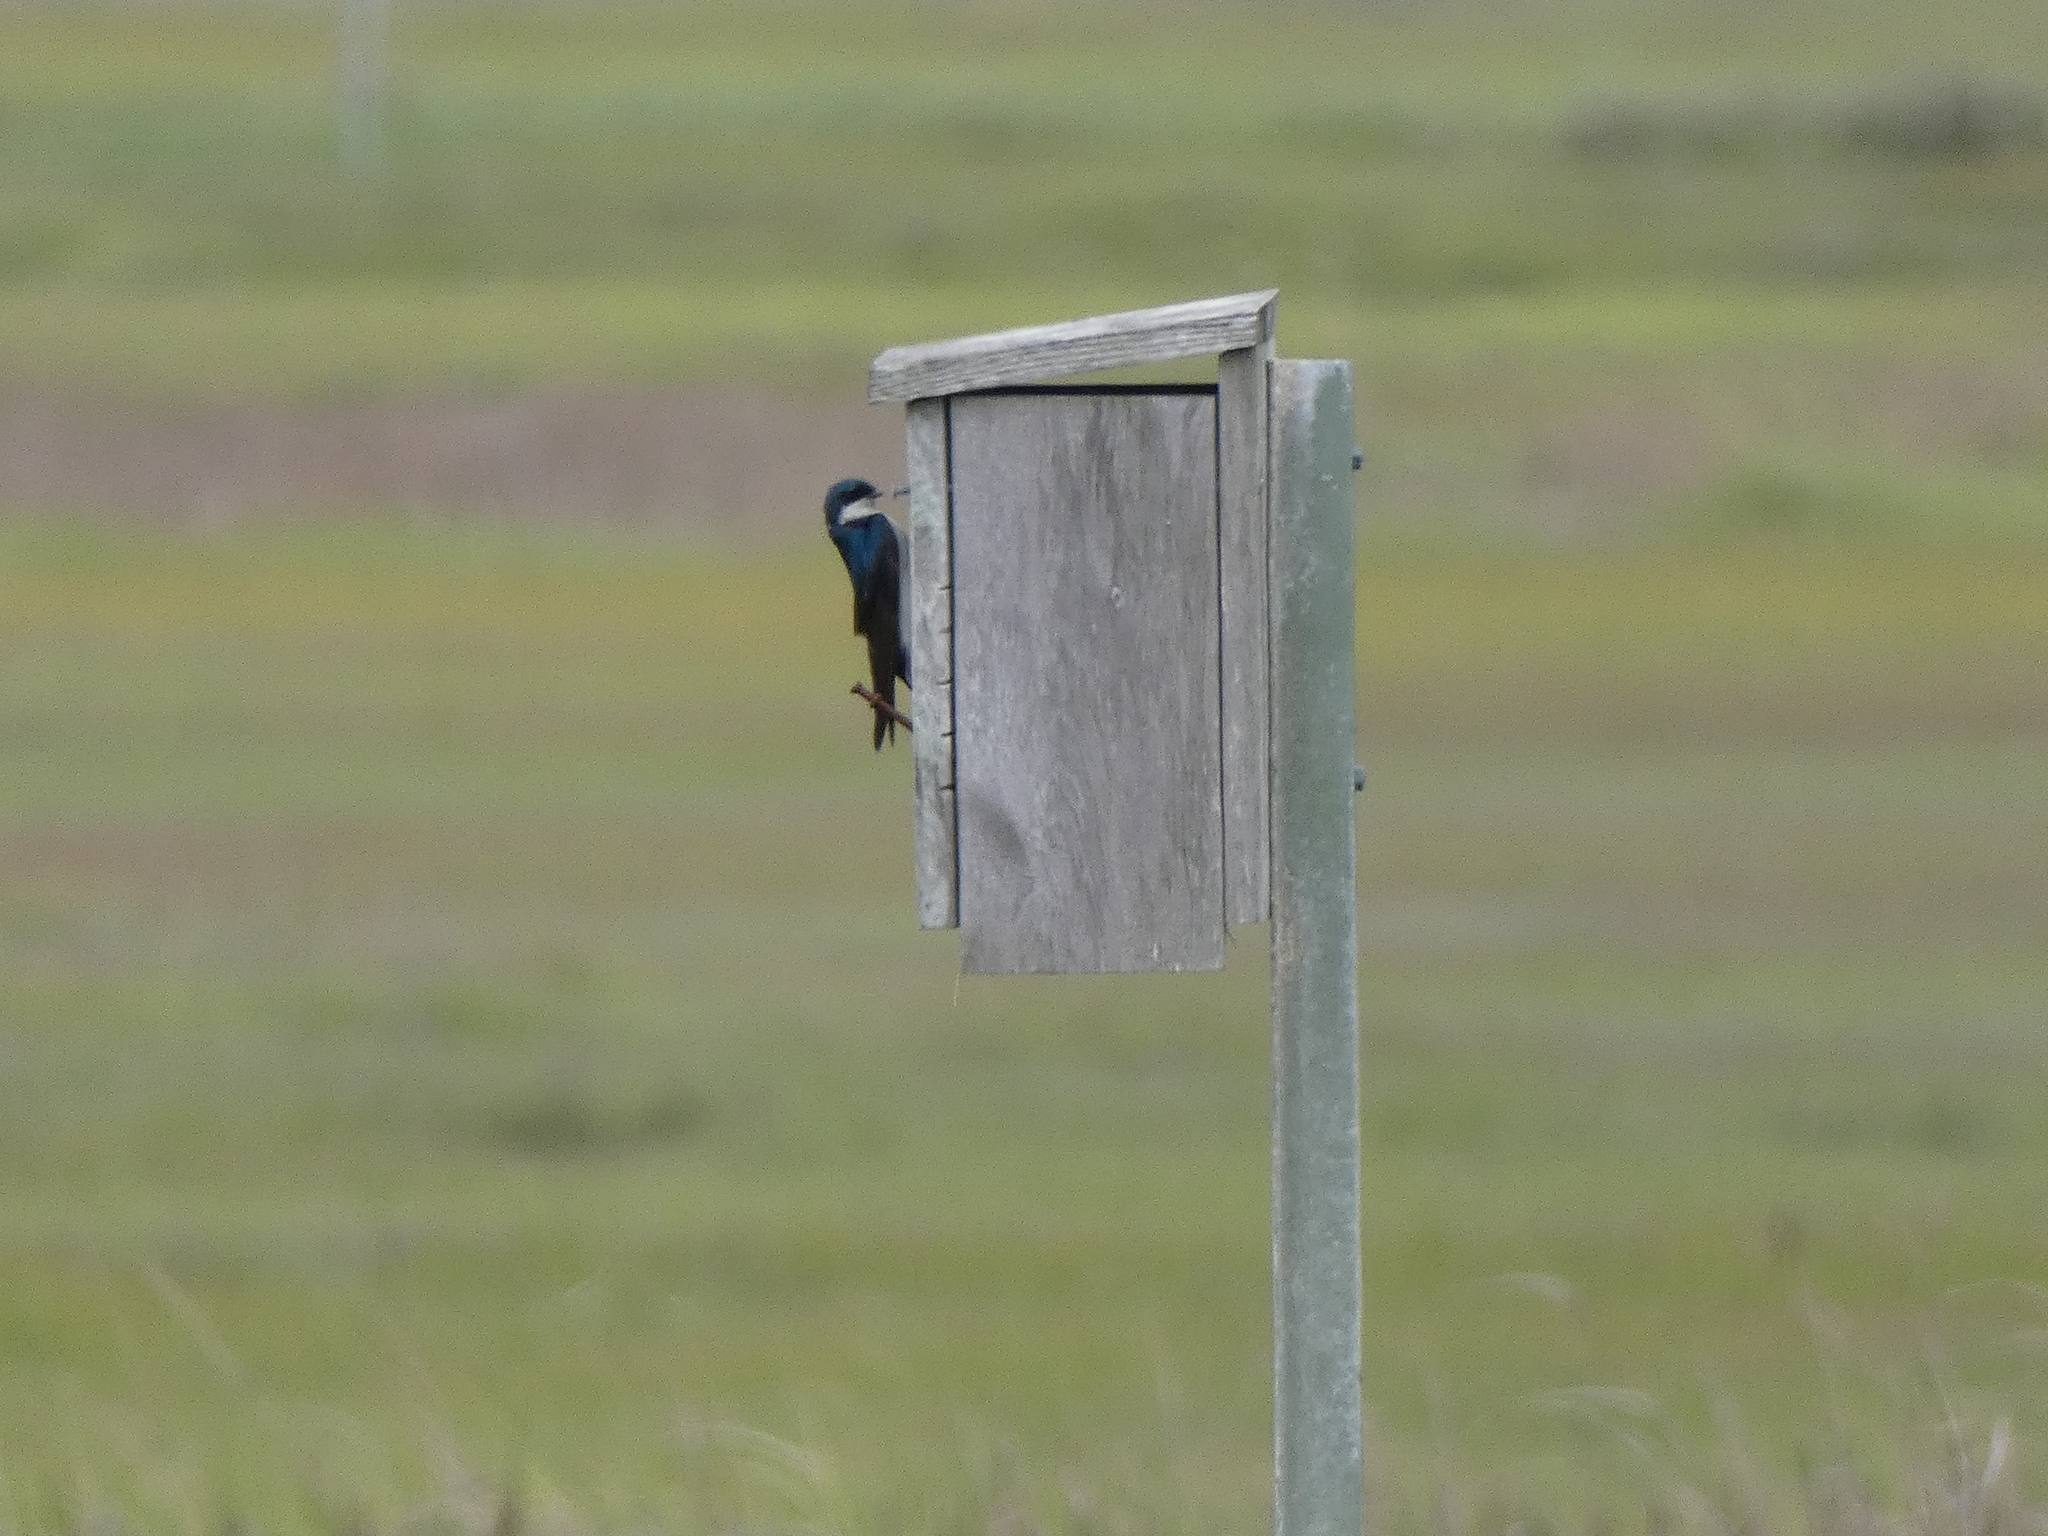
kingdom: Animalia
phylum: Chordata
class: Aves
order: Passeriformes
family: Hirundinidae
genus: Tachycineta
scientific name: Tachycineta bicolor
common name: Tree swallow
